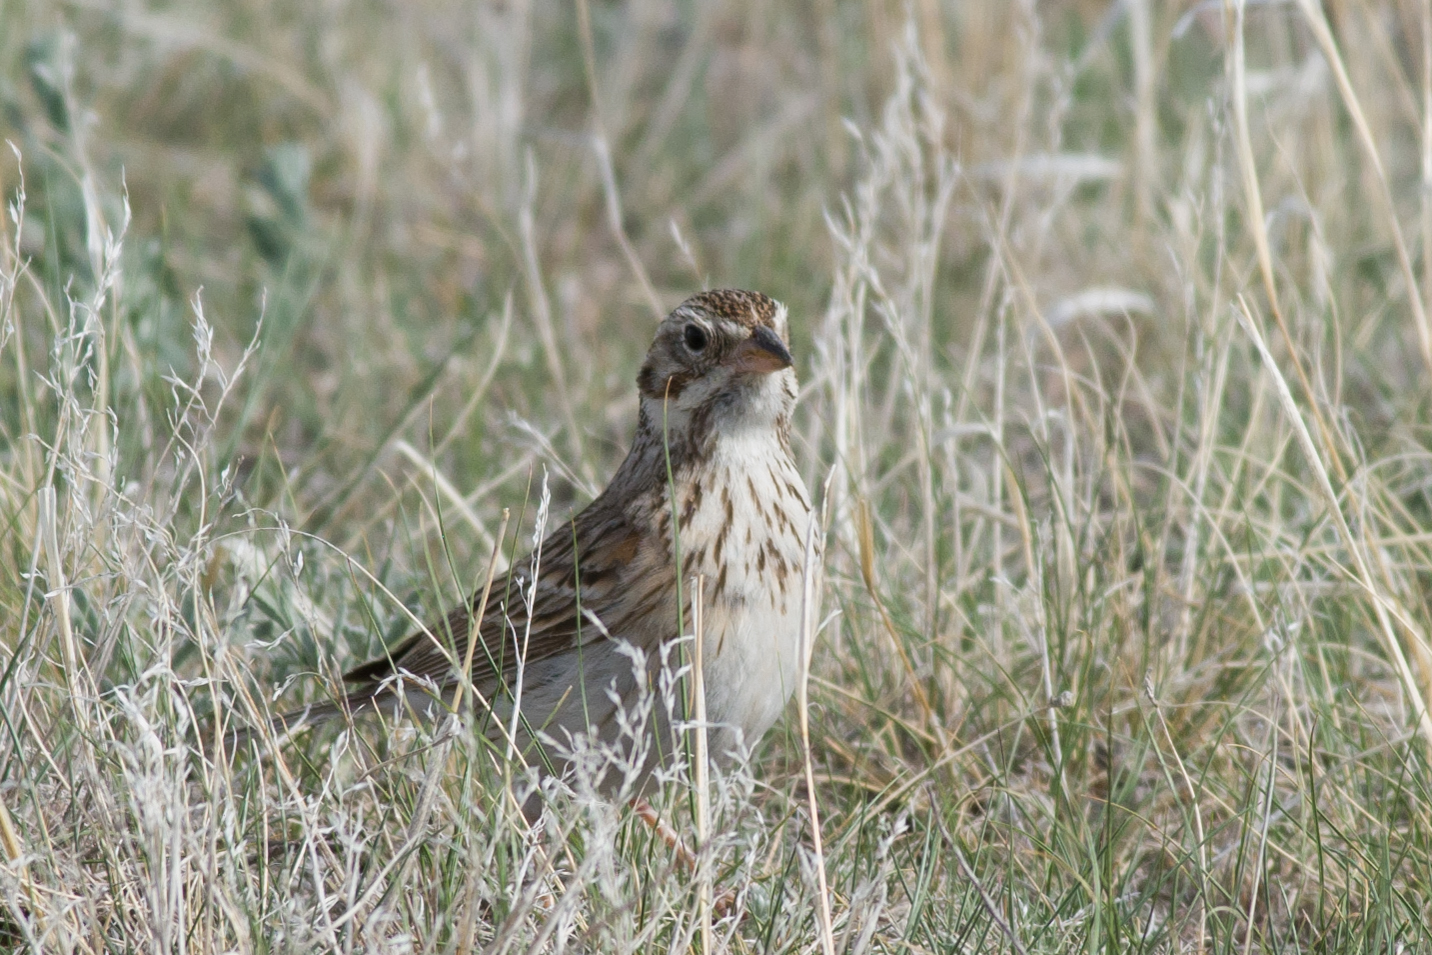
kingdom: Animalia
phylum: Chordata
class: Aves
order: Passeriformes
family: Passerellidae
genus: Pooecetes
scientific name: Pooecetes gramineus
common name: Vesper sparrow
